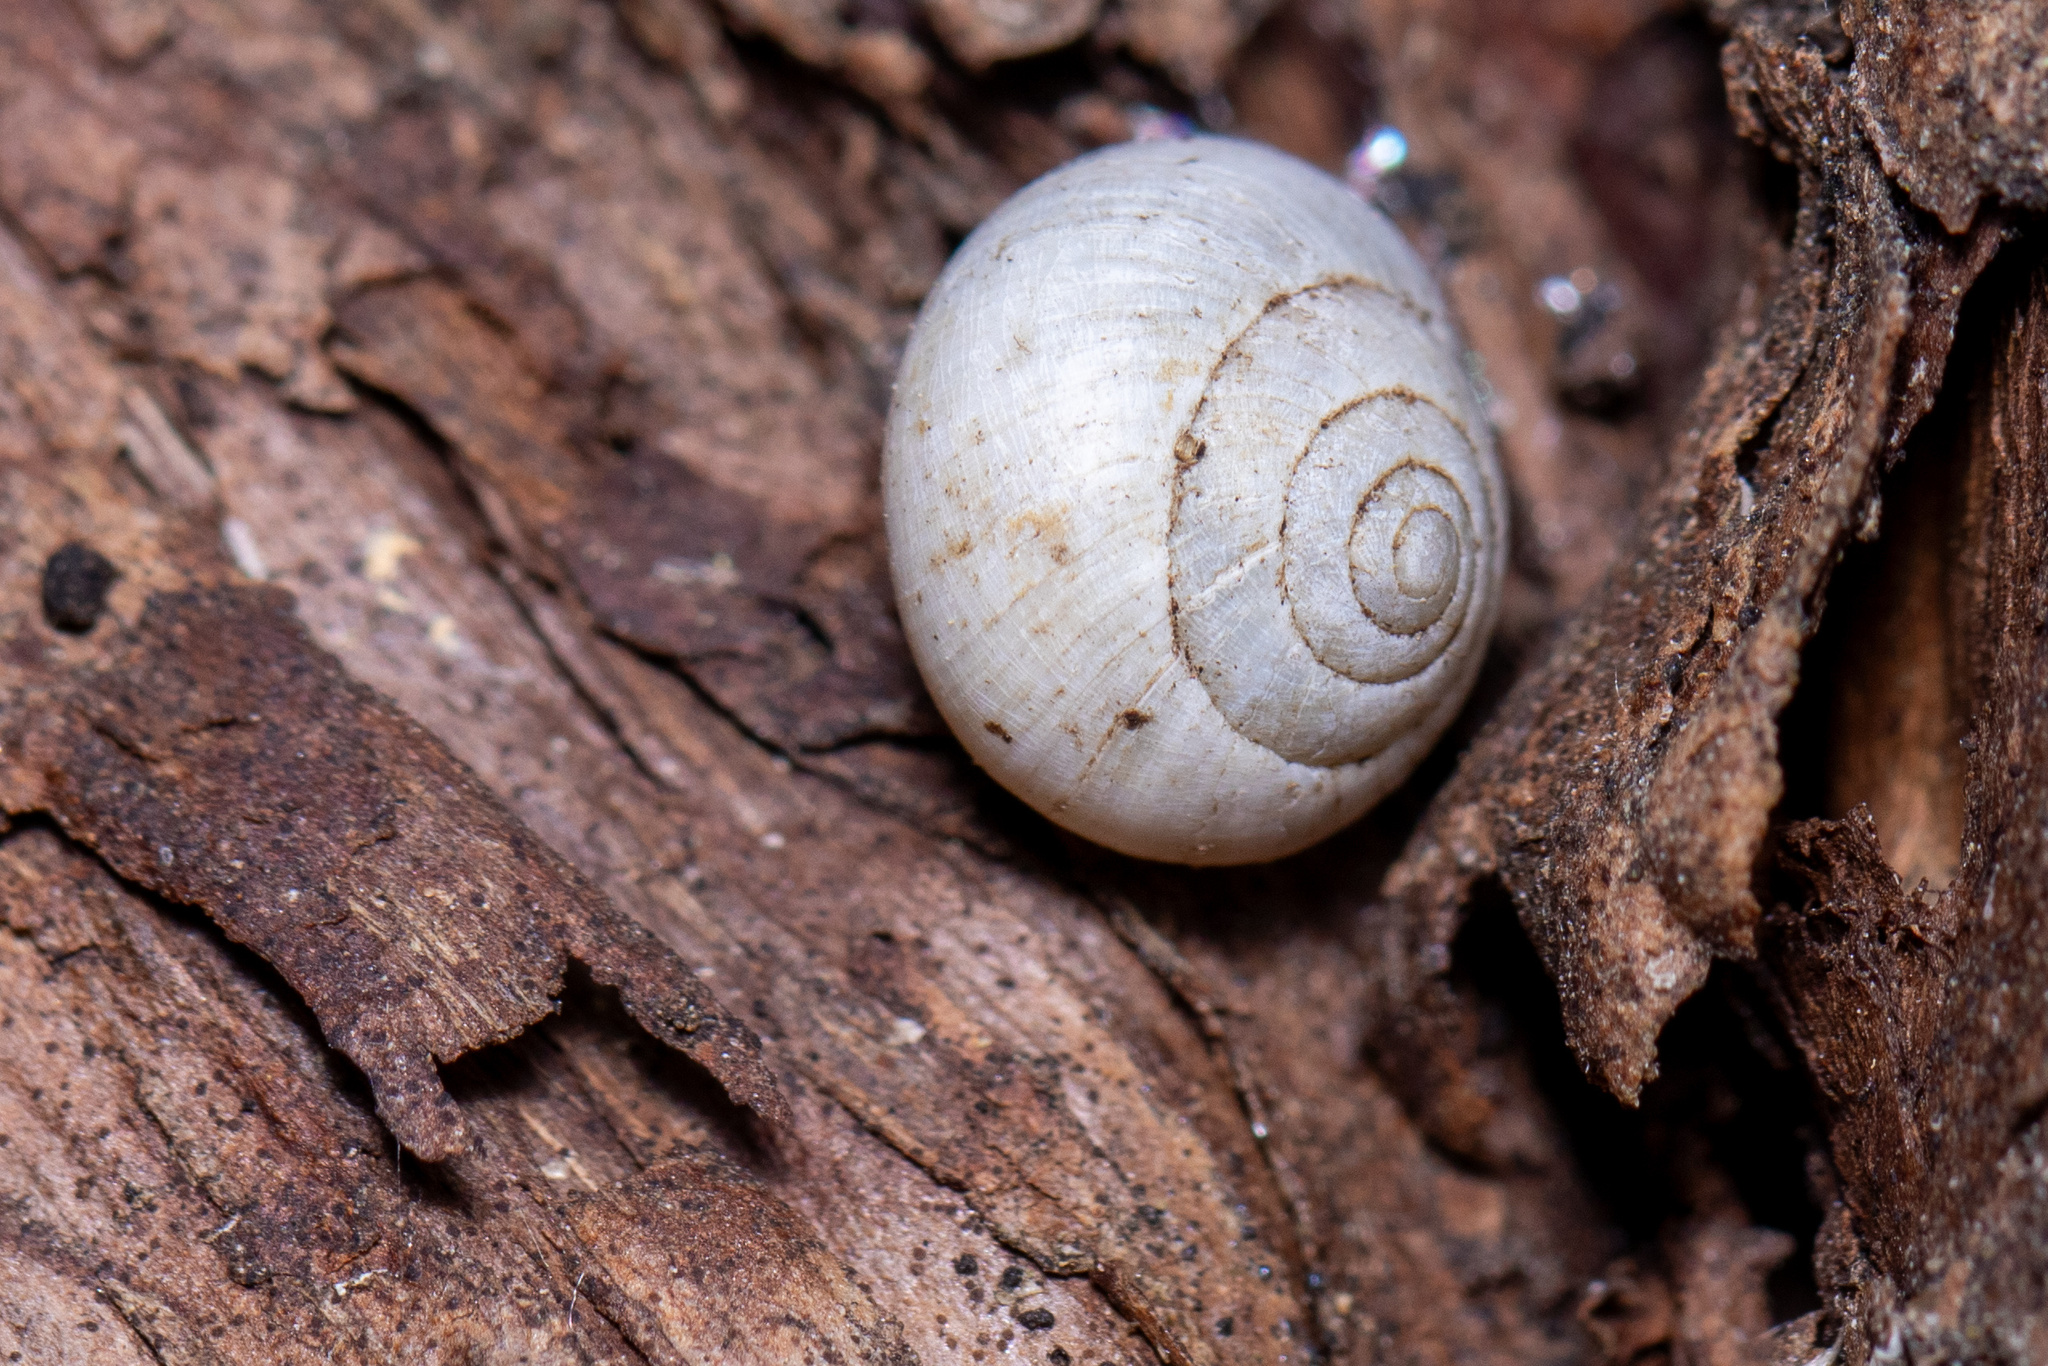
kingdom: Animalia
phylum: Mollusca
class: Gastropoda
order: Cycloneritida
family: Helicinidae
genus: Helicina
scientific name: Helicina orbiculata
